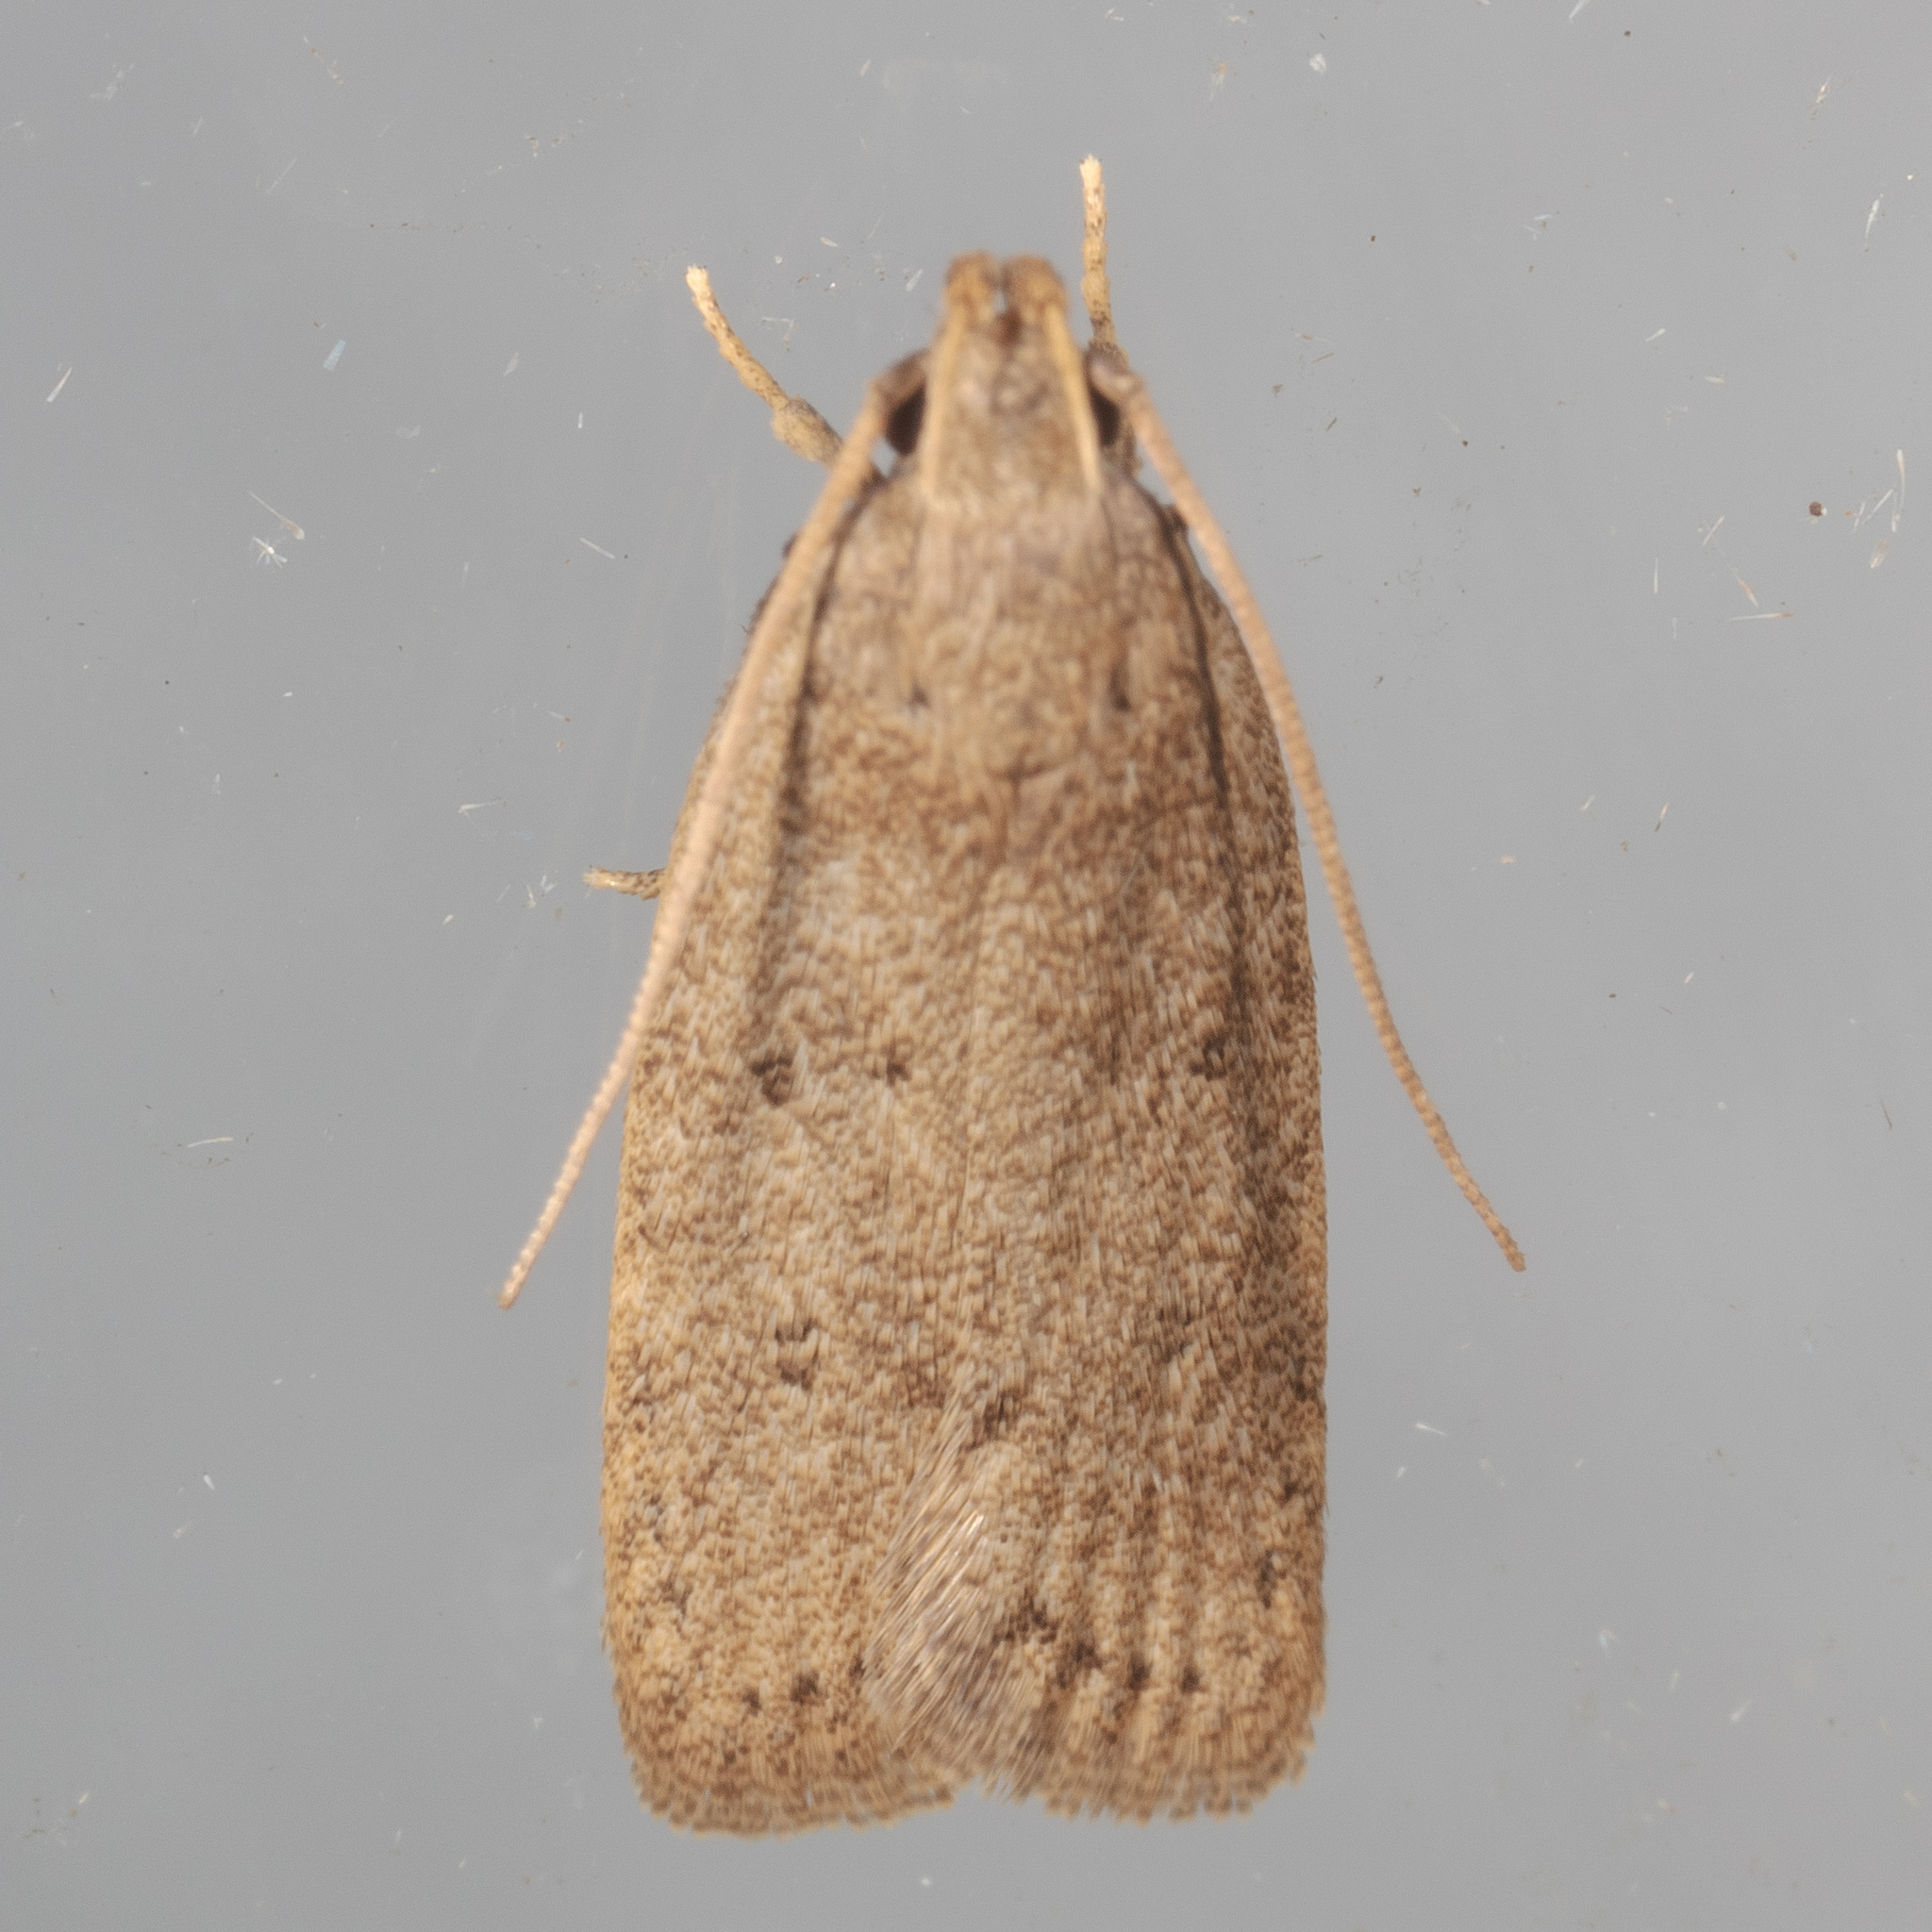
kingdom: Animalia
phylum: Arthropoda
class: Insecta
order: Lepidoptera
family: Autostichidae
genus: Autosticha
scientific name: Autosticha kyotensis
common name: Kyoto moth
